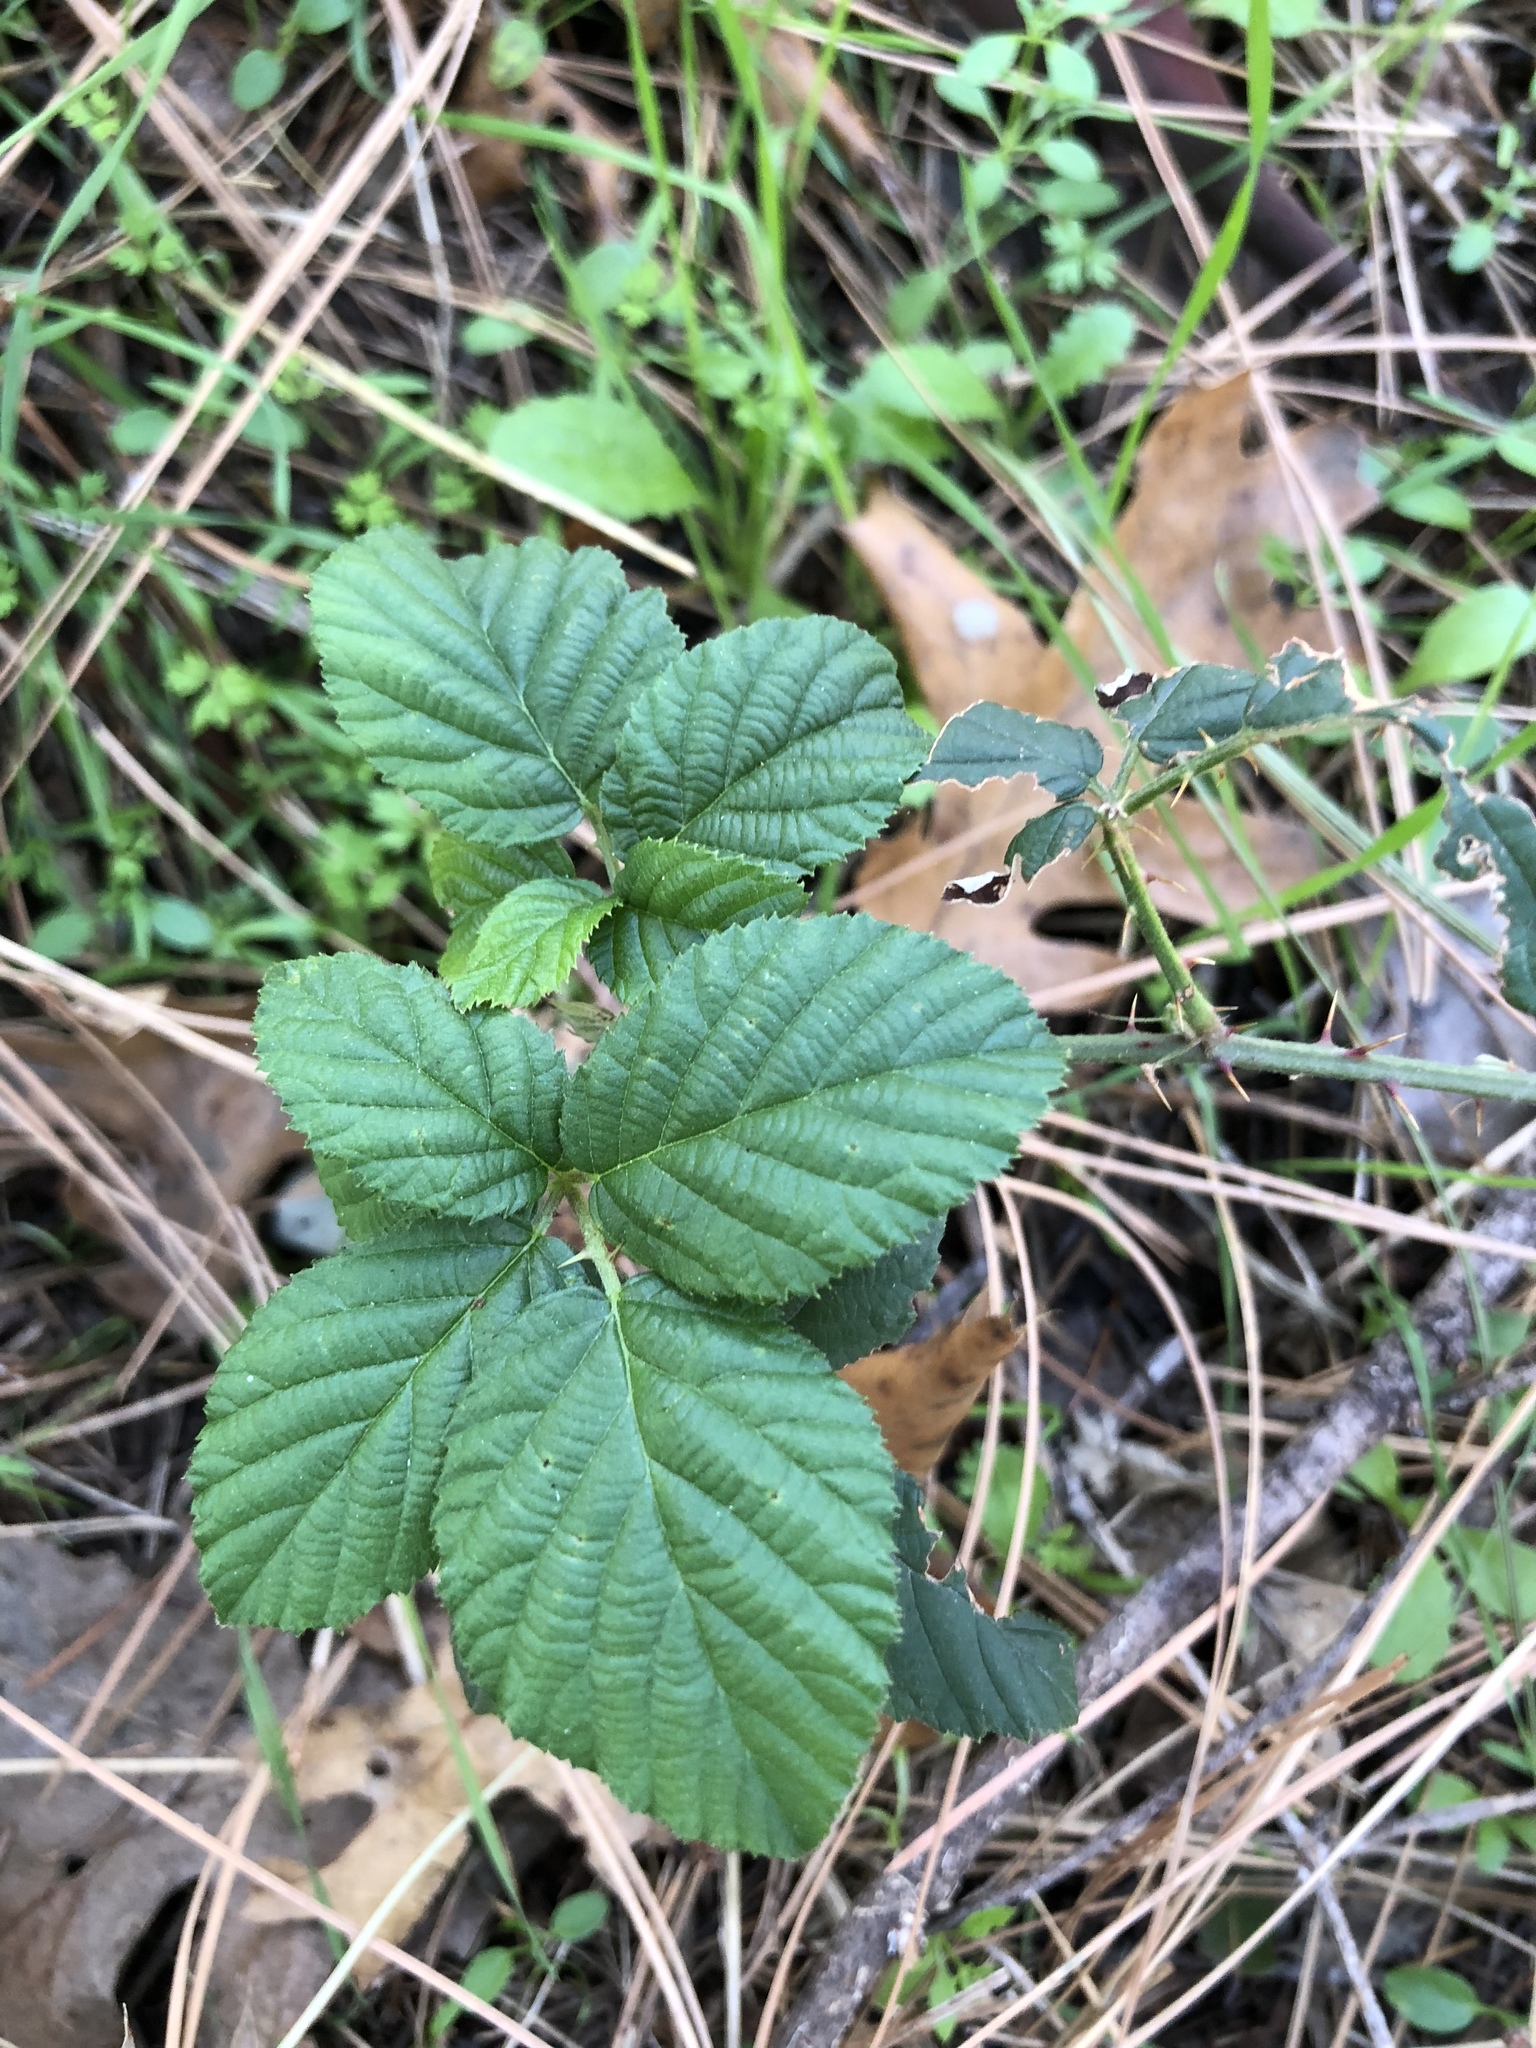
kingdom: Plantae
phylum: Tracheophyta
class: Magnoliopsida
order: Rosales
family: Rosaceae
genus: Rubus
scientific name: Rubus armeniacus
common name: Himalayan blackberry
